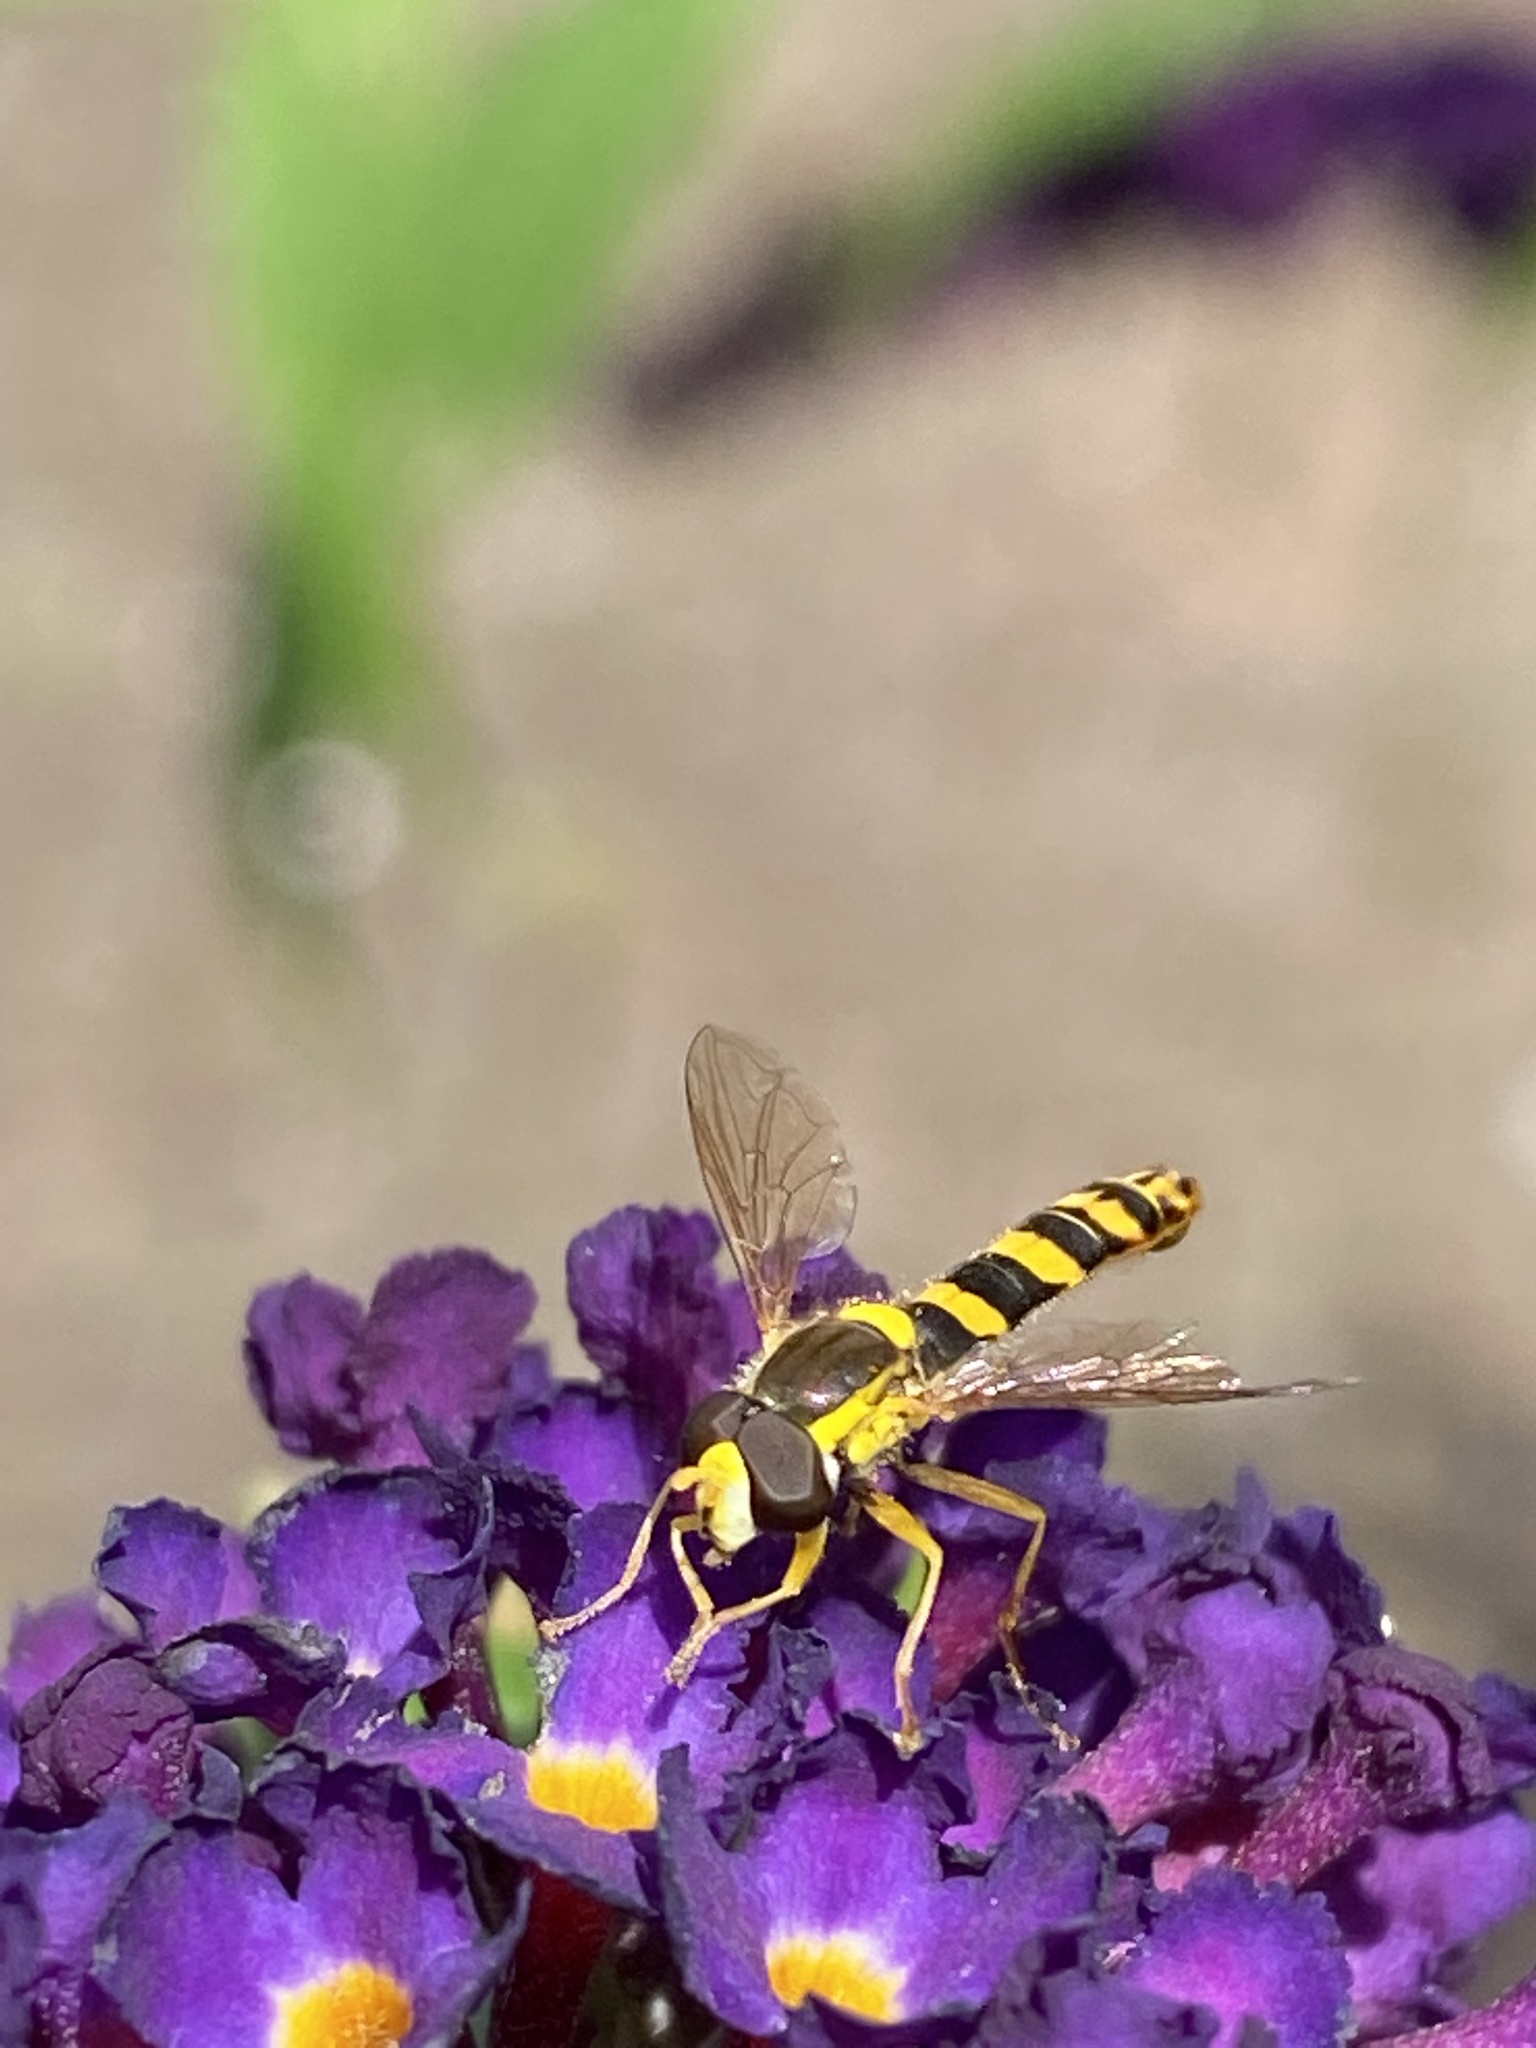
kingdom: Animalia
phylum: Arthropoda
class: Insecta
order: Diptera
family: Syrphidae
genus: Sphaerophoria
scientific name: Sphaerophoria scripta
